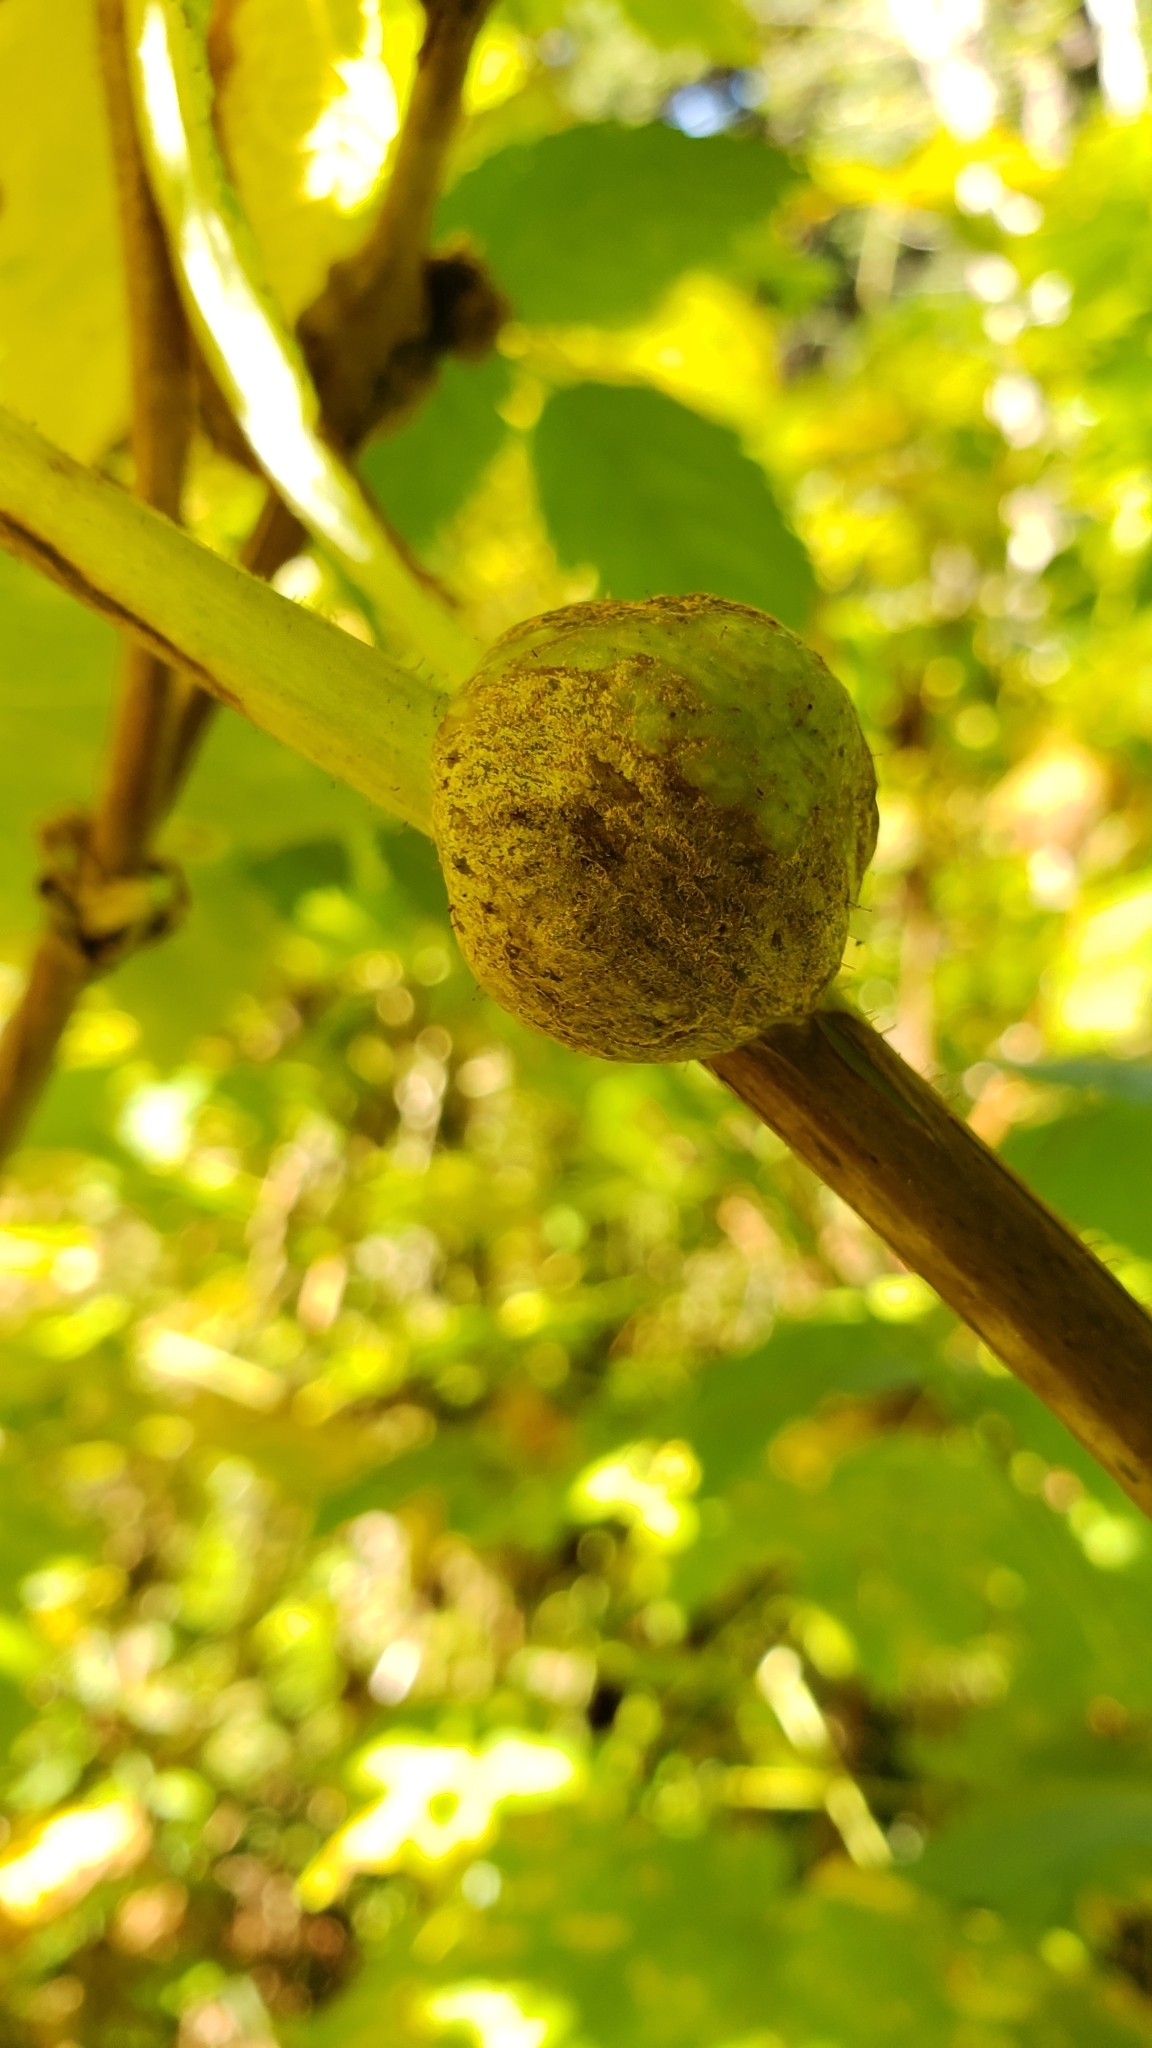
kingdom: Animalia
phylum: Arthropoda
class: Insecta
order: Hymenoptera
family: Cynipidae
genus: Diastrophus
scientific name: Diastrophus
